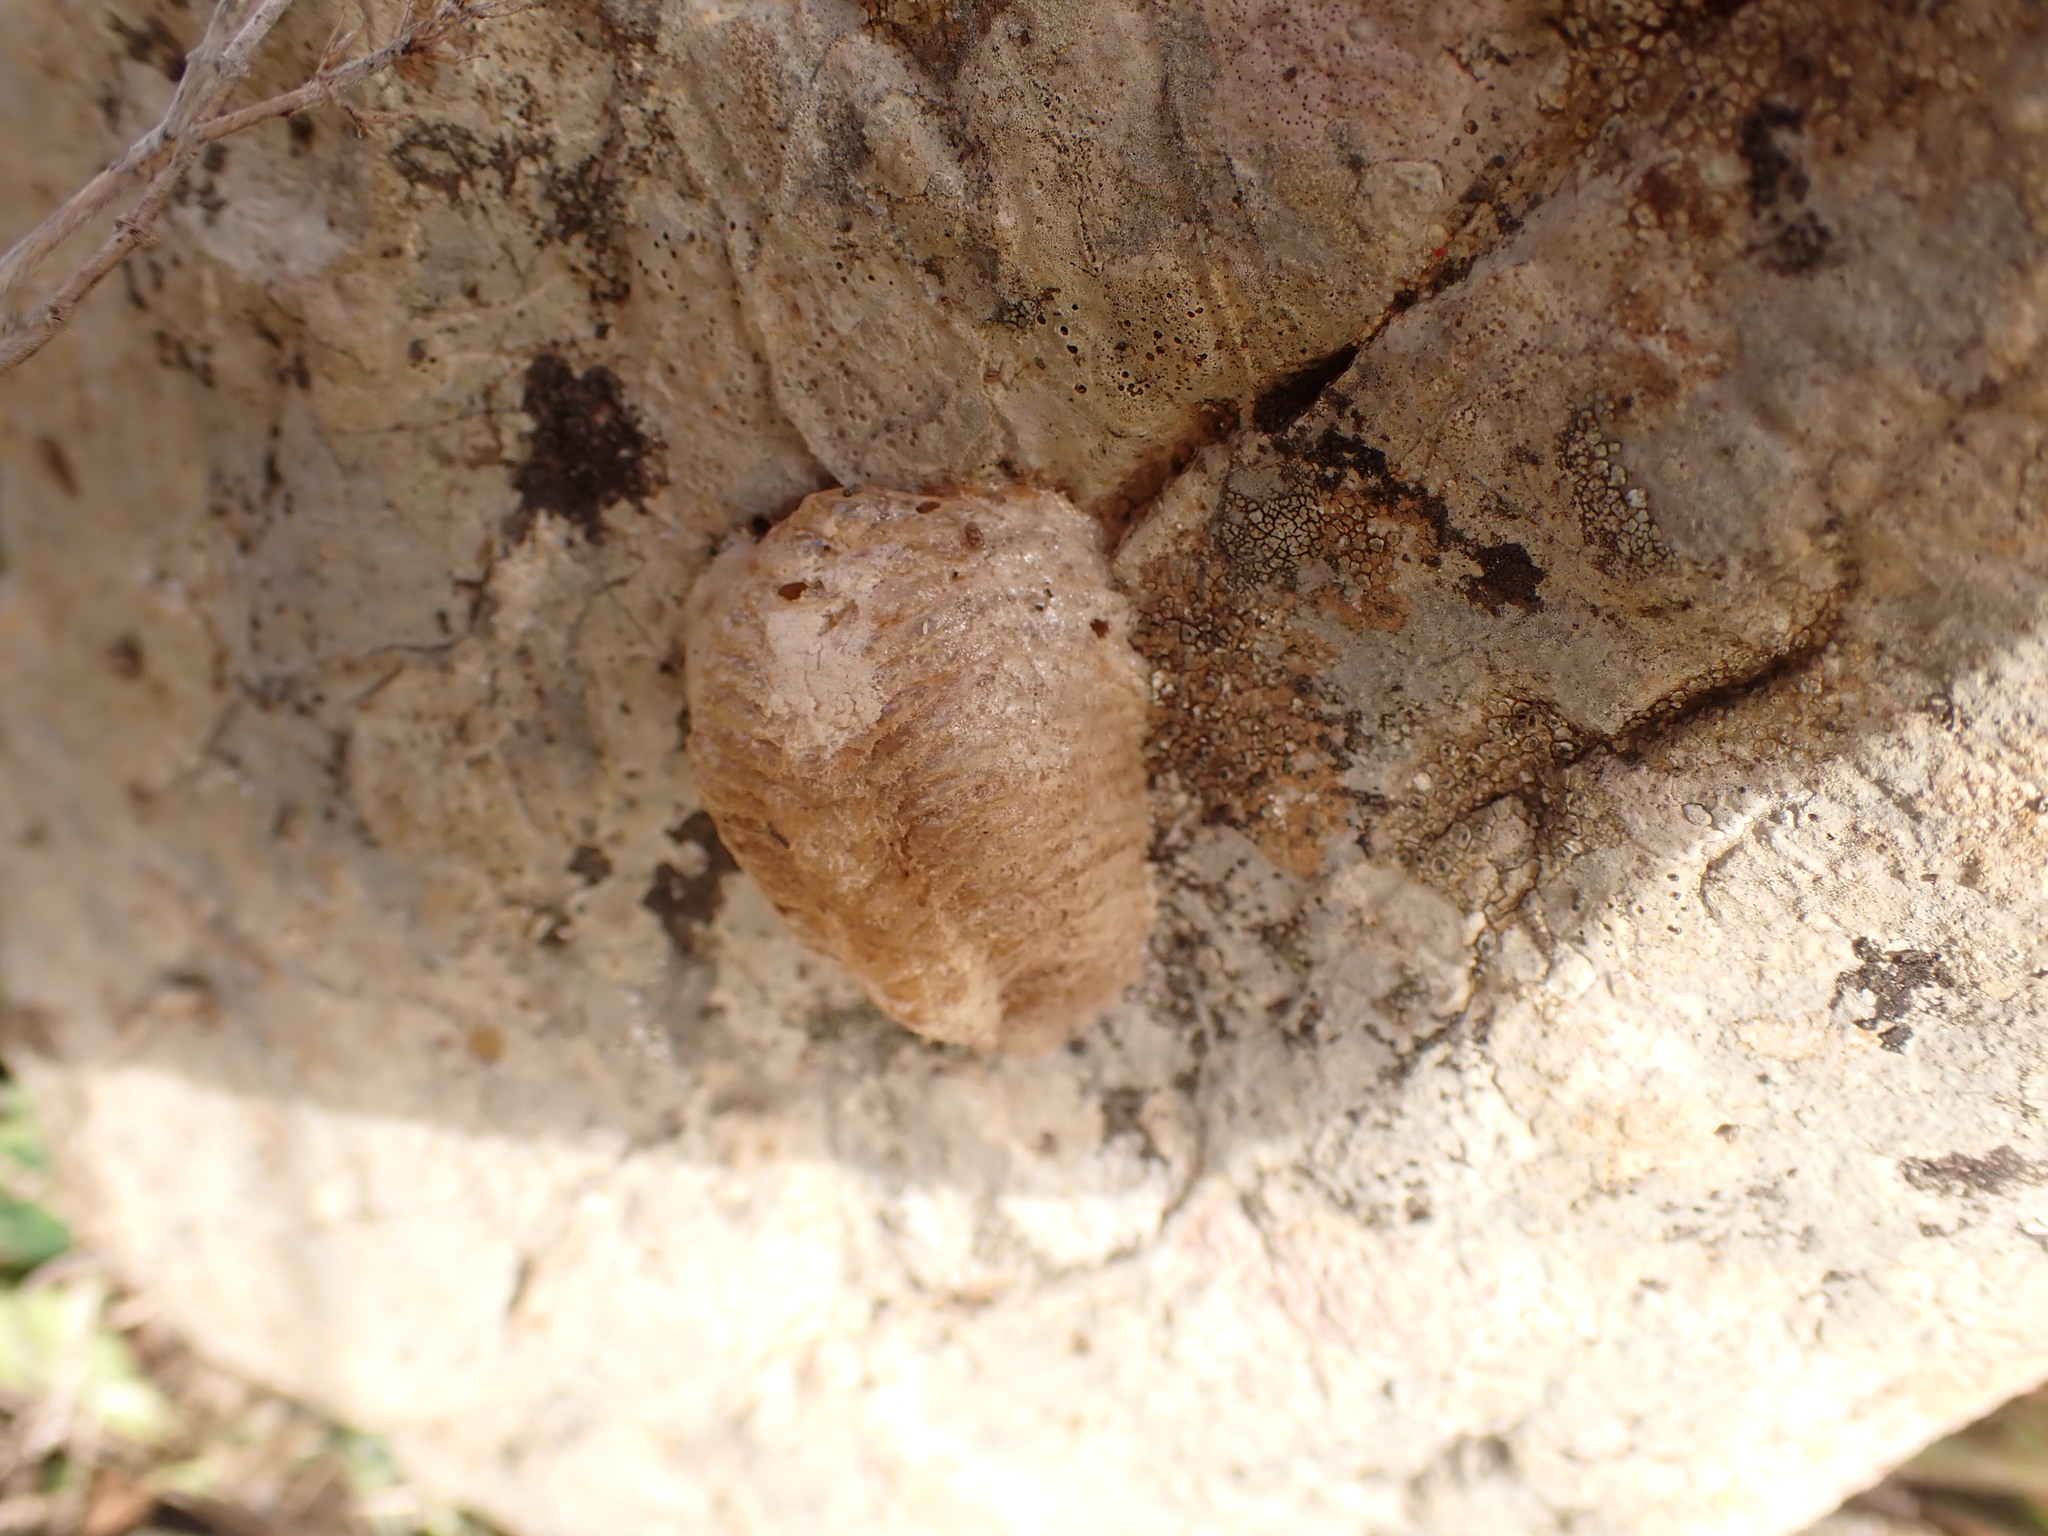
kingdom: Animalia
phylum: Arthropoda
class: Insecta
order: Mantodea
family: Mantidae
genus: Mantis
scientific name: Mantis religiosa
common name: Praying mantis
